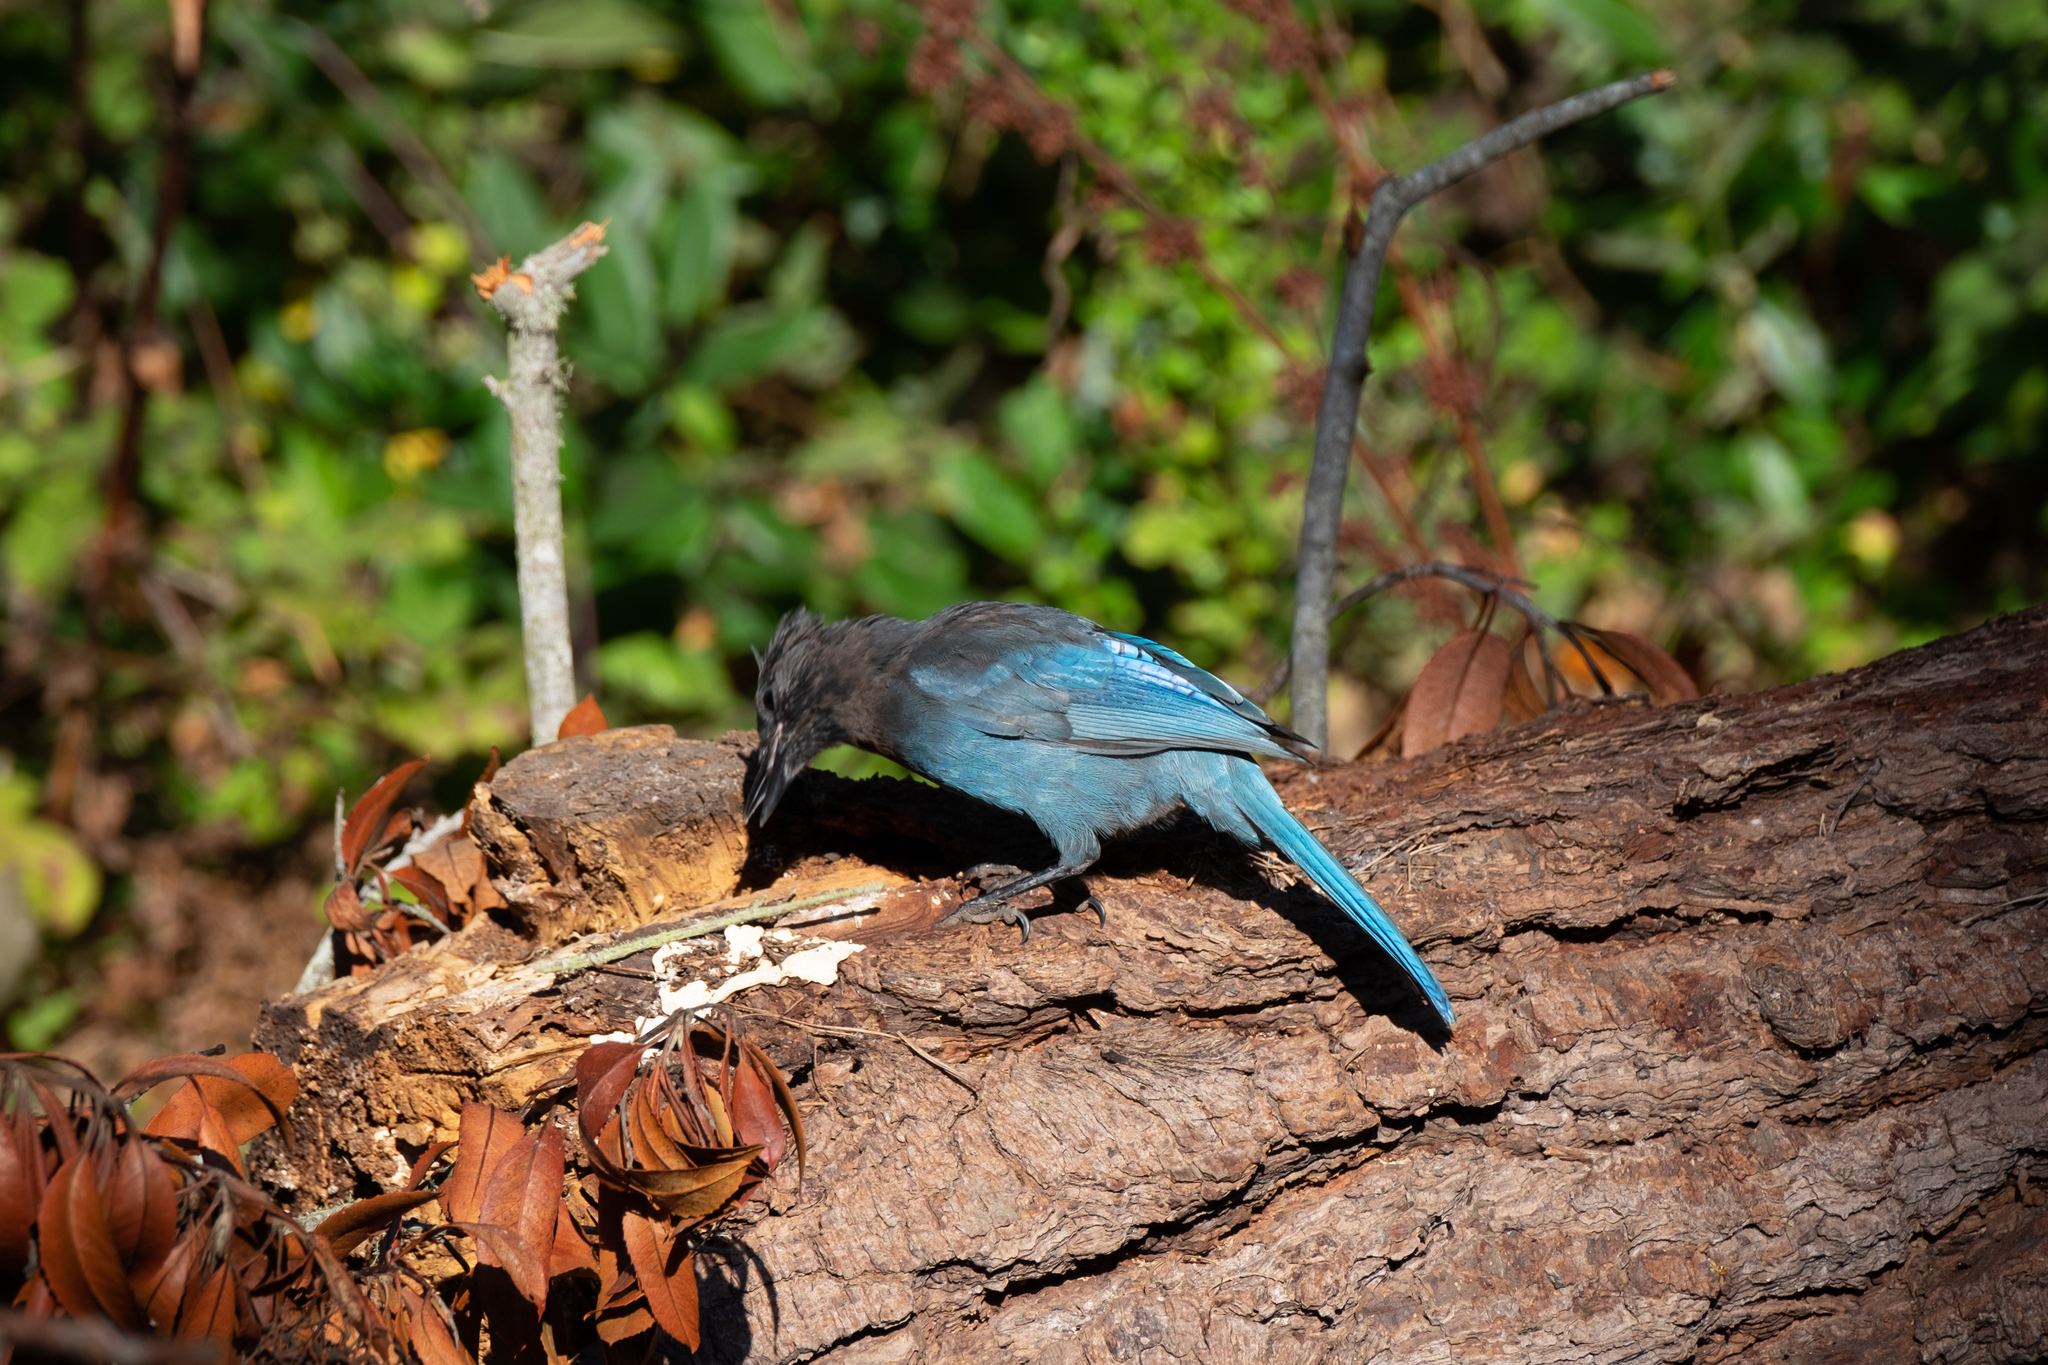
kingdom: Animalia
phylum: Chordata
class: Aves
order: Passeriformes
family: Corvidae
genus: Cyanocitta
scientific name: Cyanocitta stelleri
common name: Steller's jay
